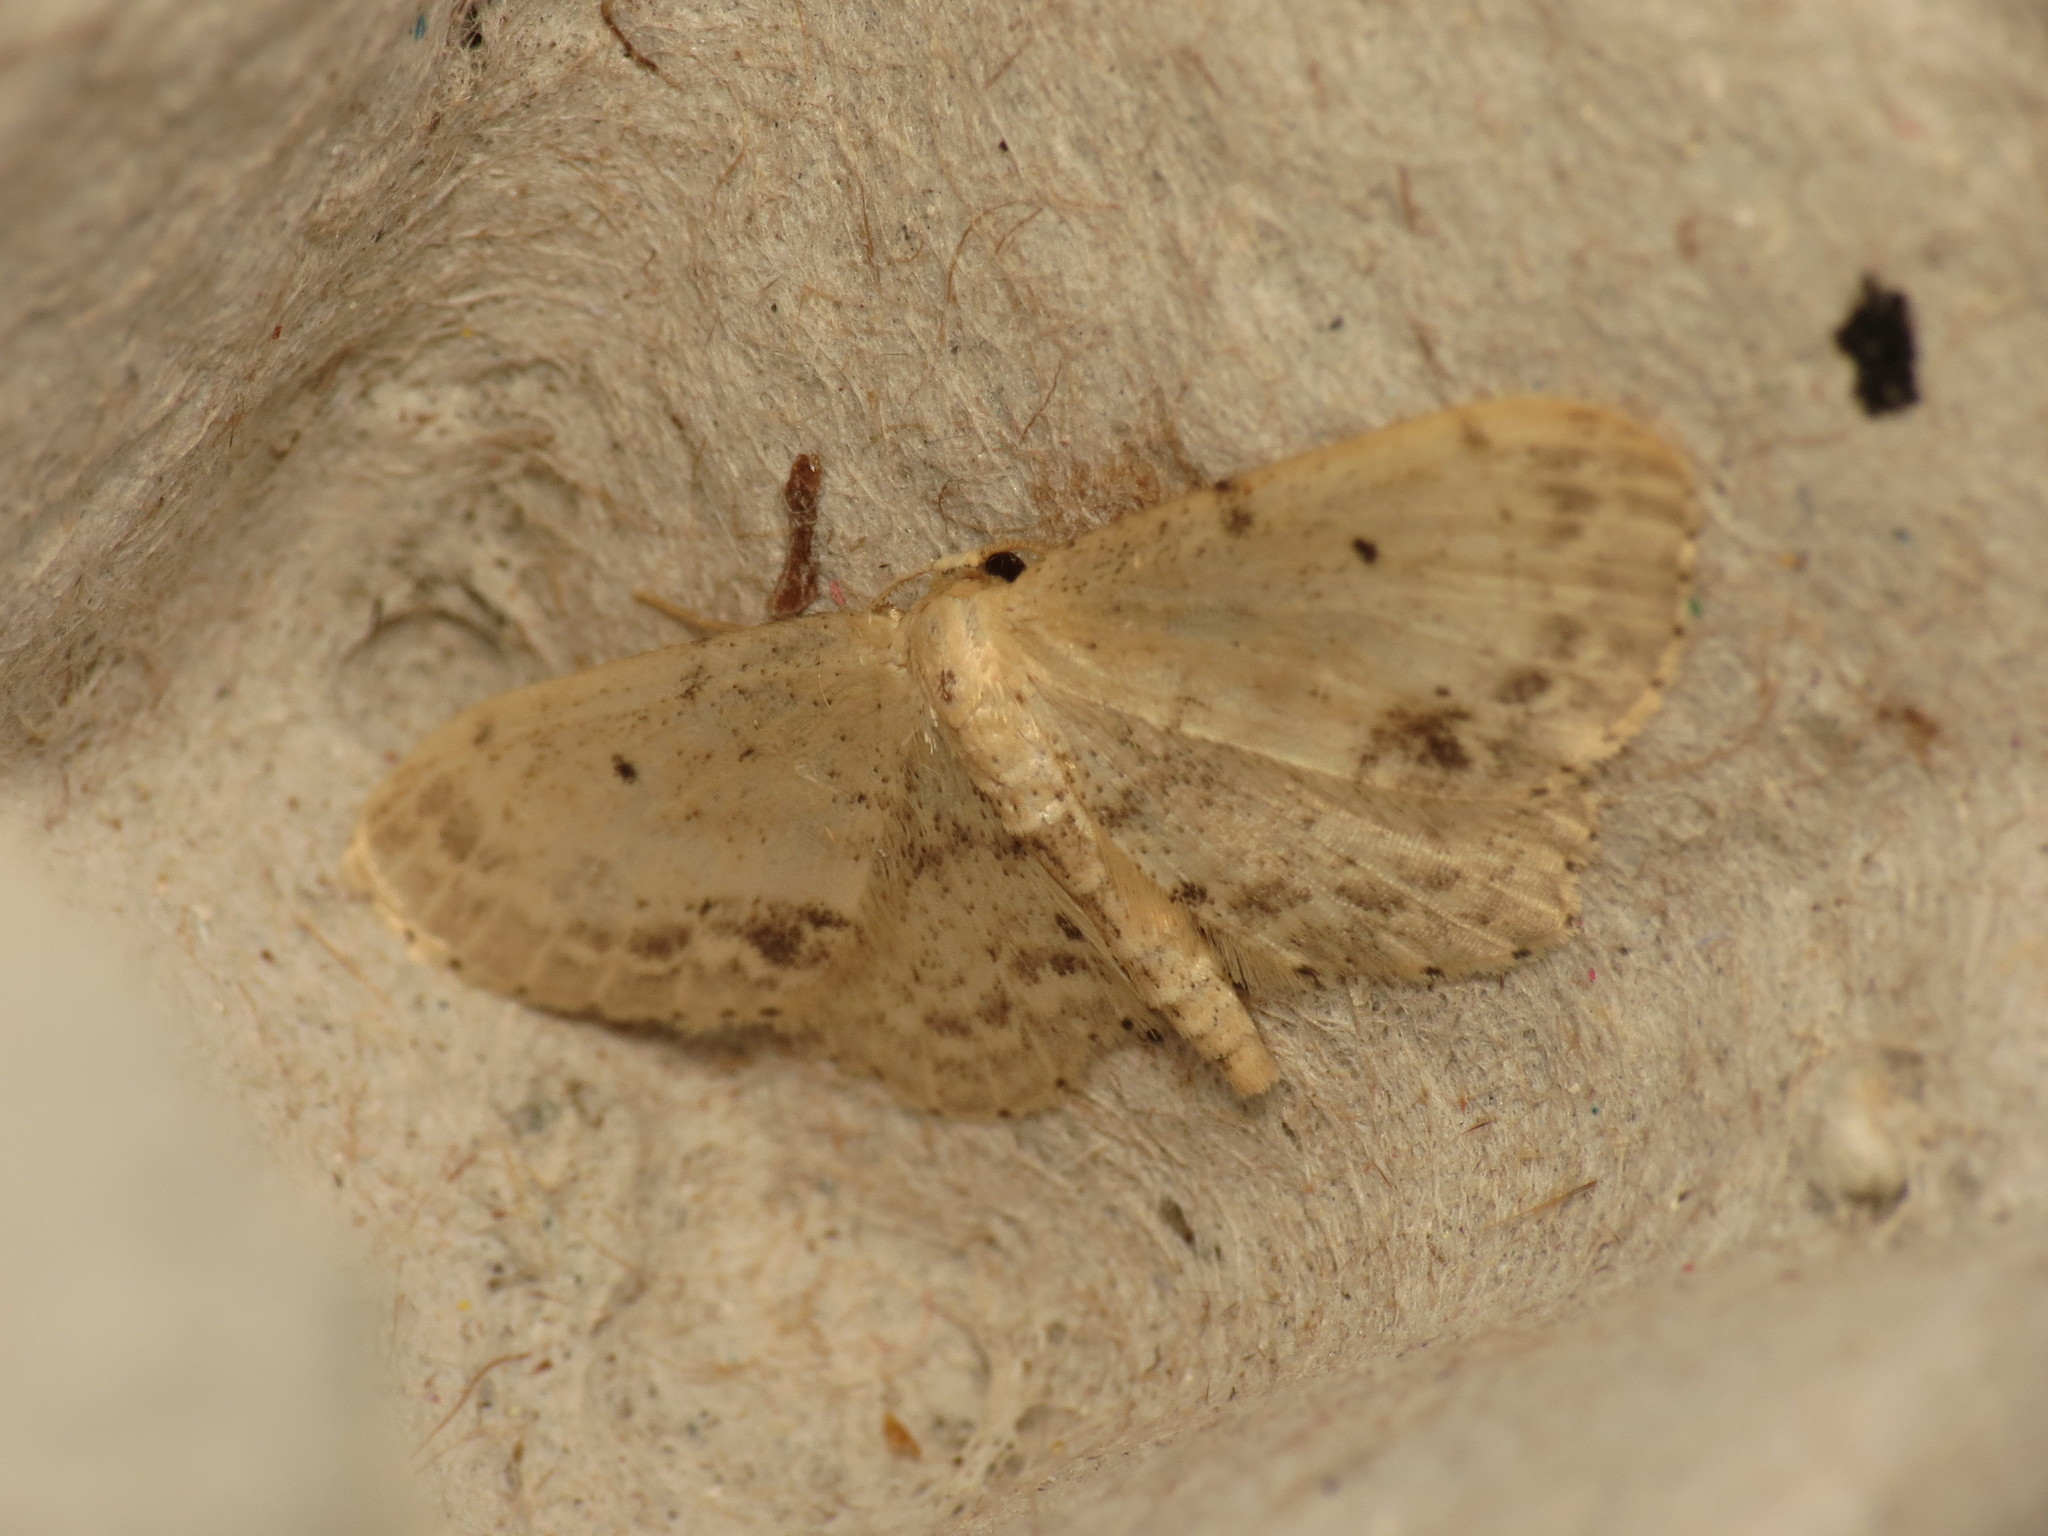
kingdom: Animalia
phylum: Arthropoda
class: Insecta
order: Lepidoptera
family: Geometridae
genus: Idaea
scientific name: Idaea dimidiata
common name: Single-dotted wave
